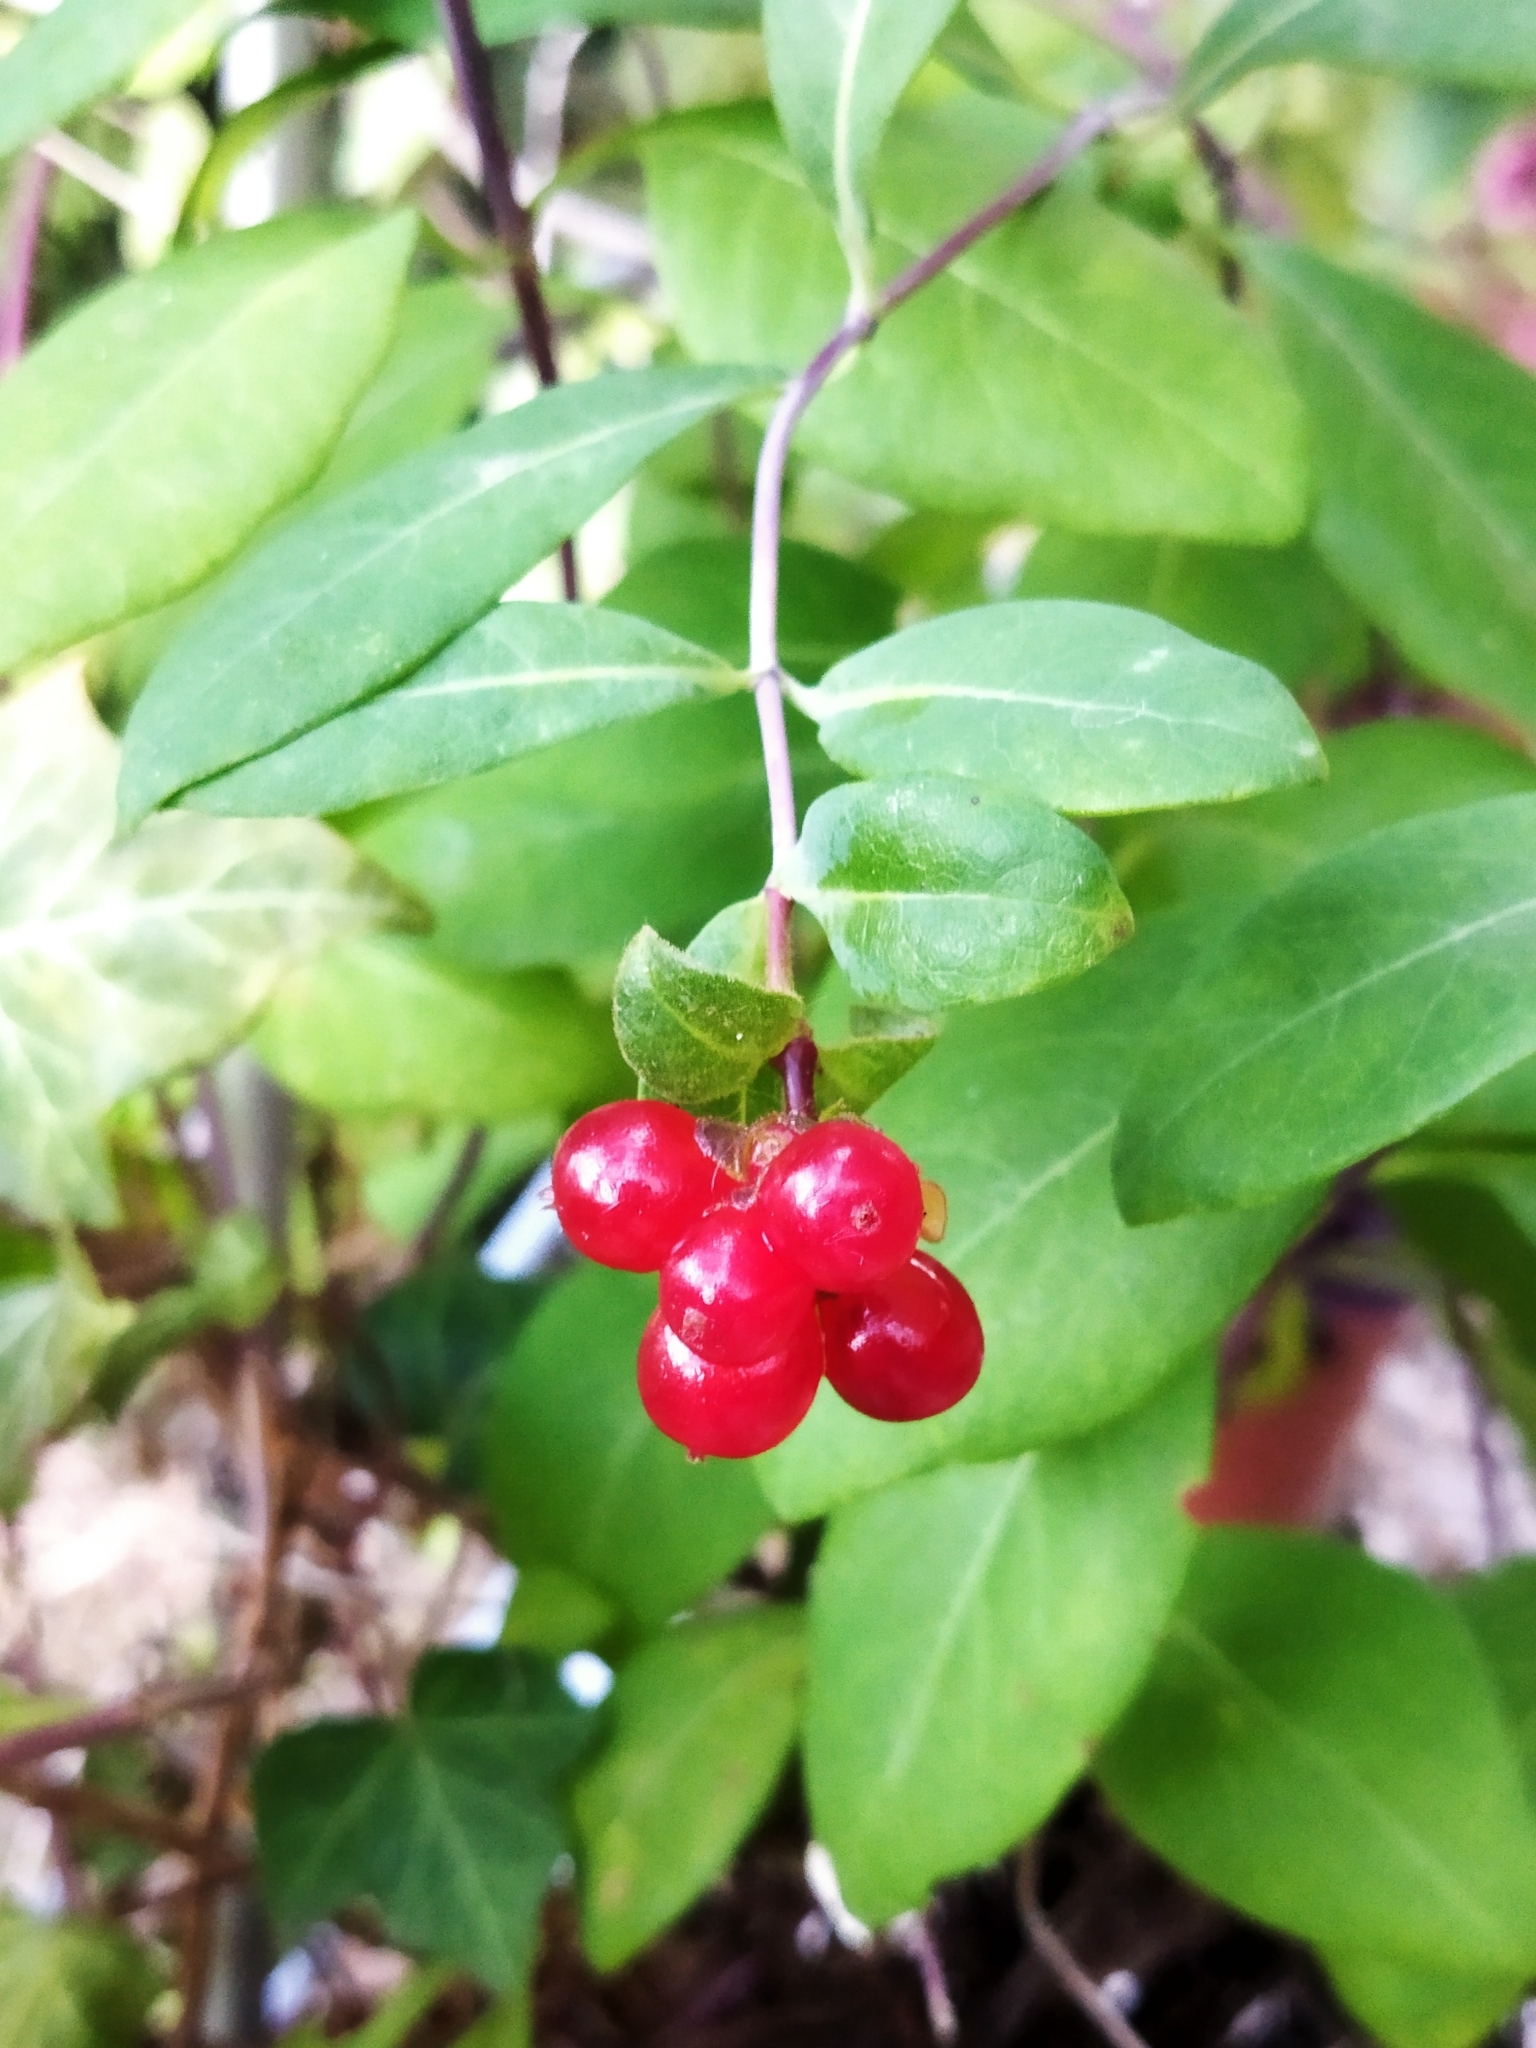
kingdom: Plantae
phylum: Tracheophyta
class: Magnoliopsida
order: Dipsacales
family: Caprifoliaceae
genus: Lonicera
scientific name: Lonicera periclymenum
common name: European honeysuckle
